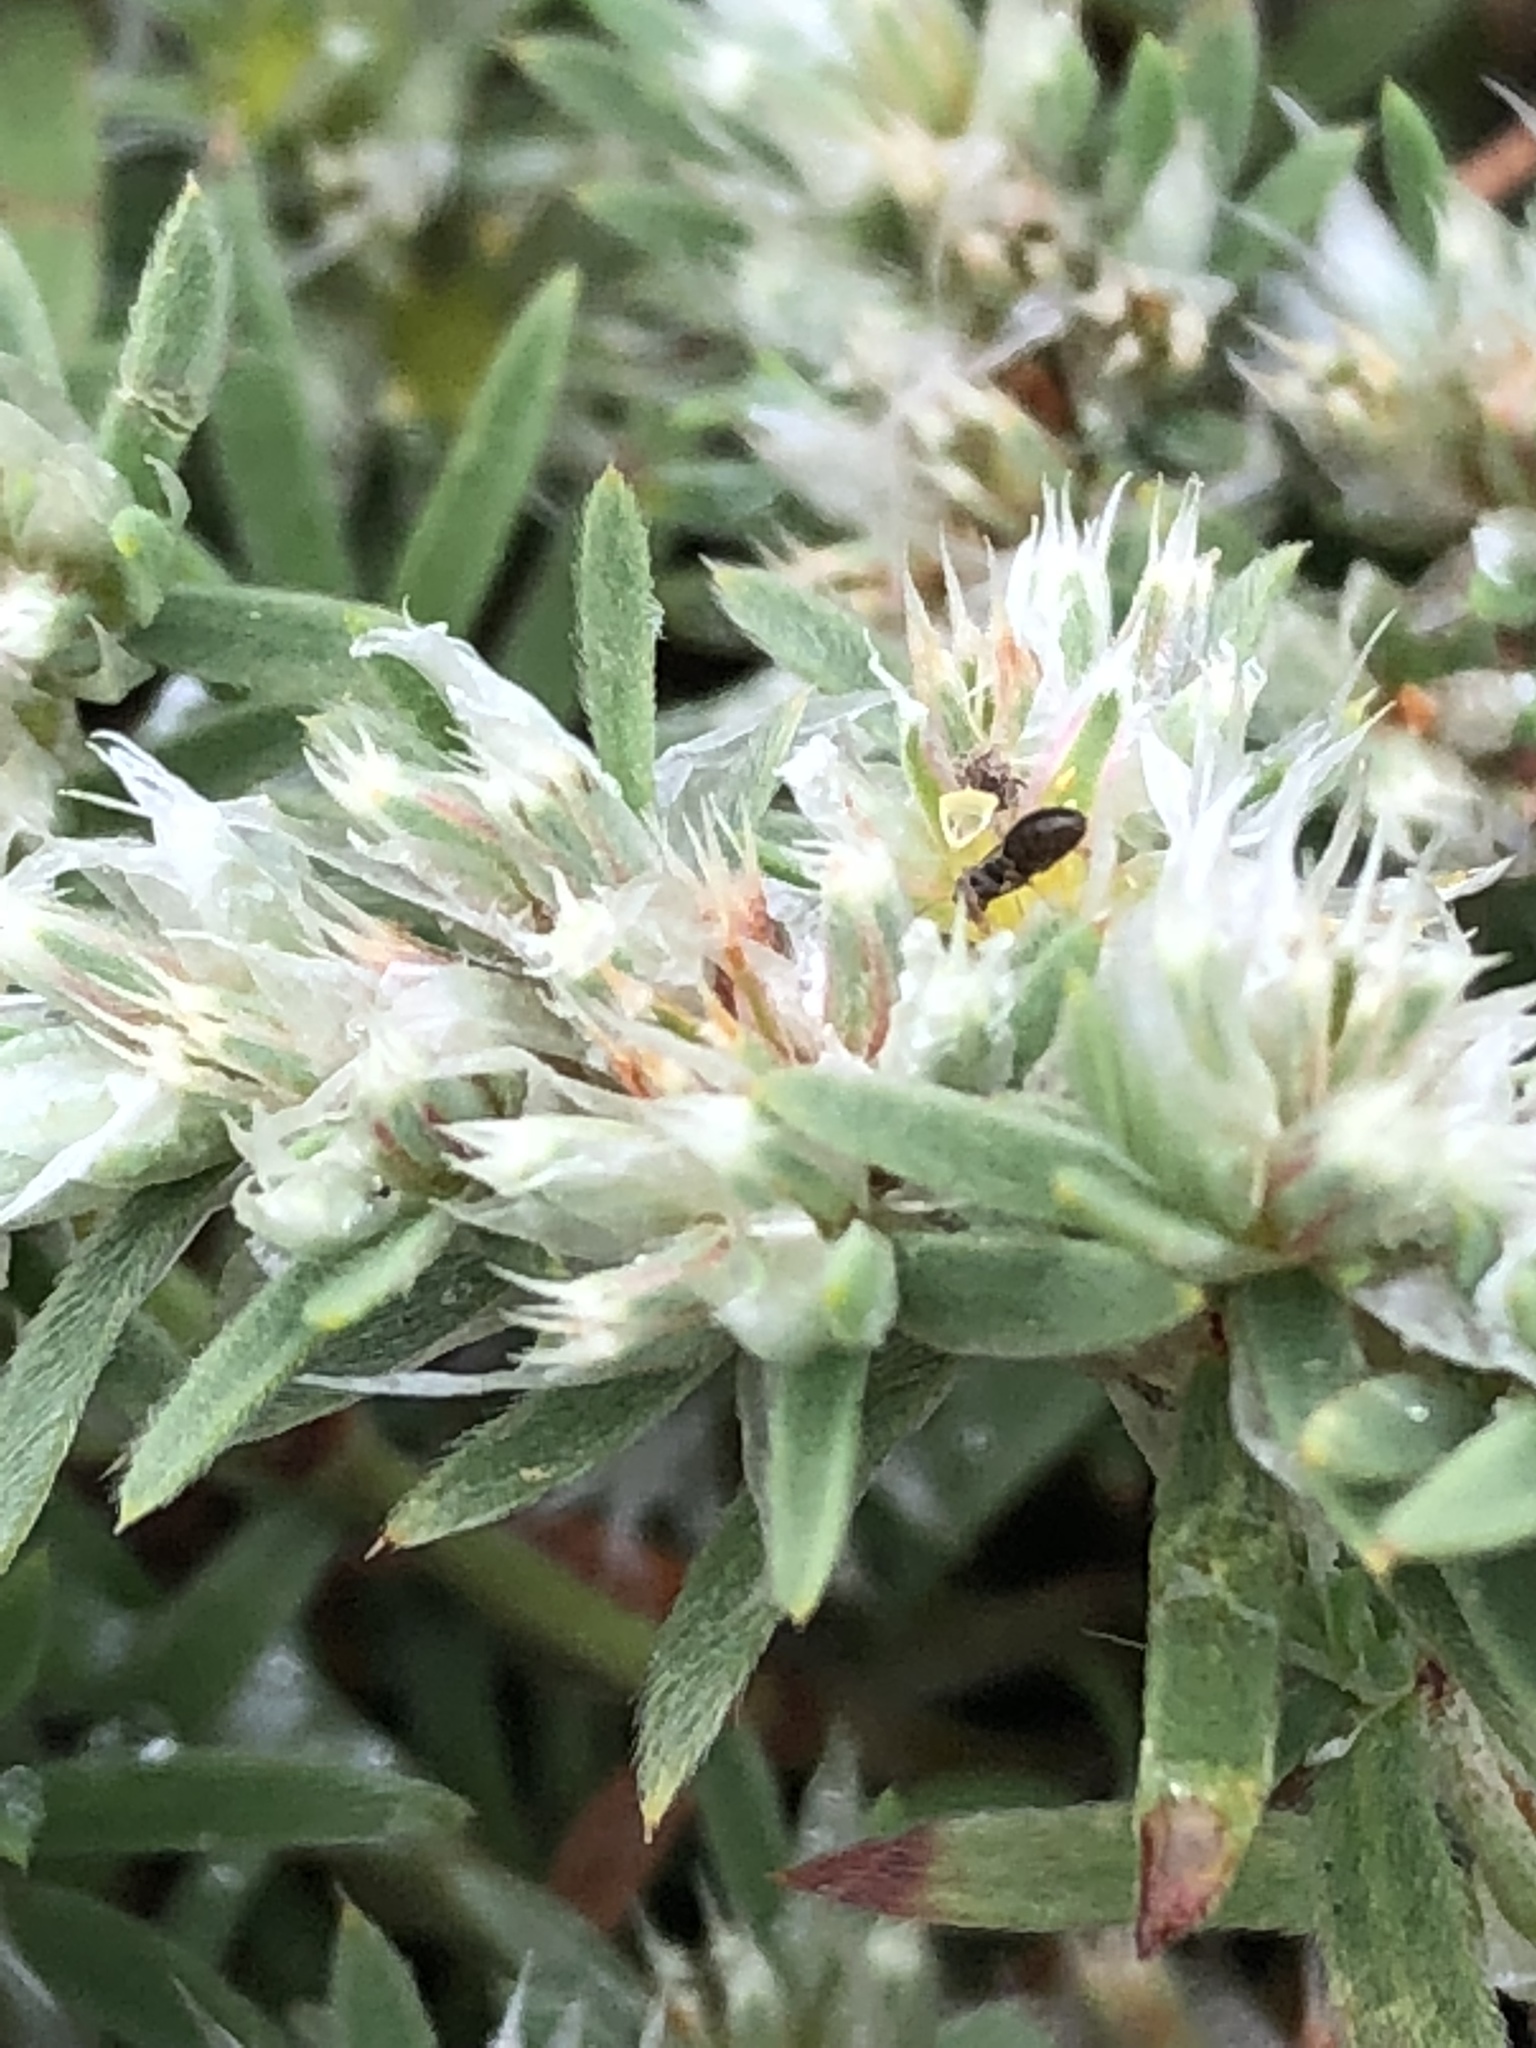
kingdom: Plantae
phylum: Tracheophyta
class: Magnoliopsida
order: Caryophyllales
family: Caryophyllaceae
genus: Paronychia
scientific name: Paronychia argyrocoma
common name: Silverling
